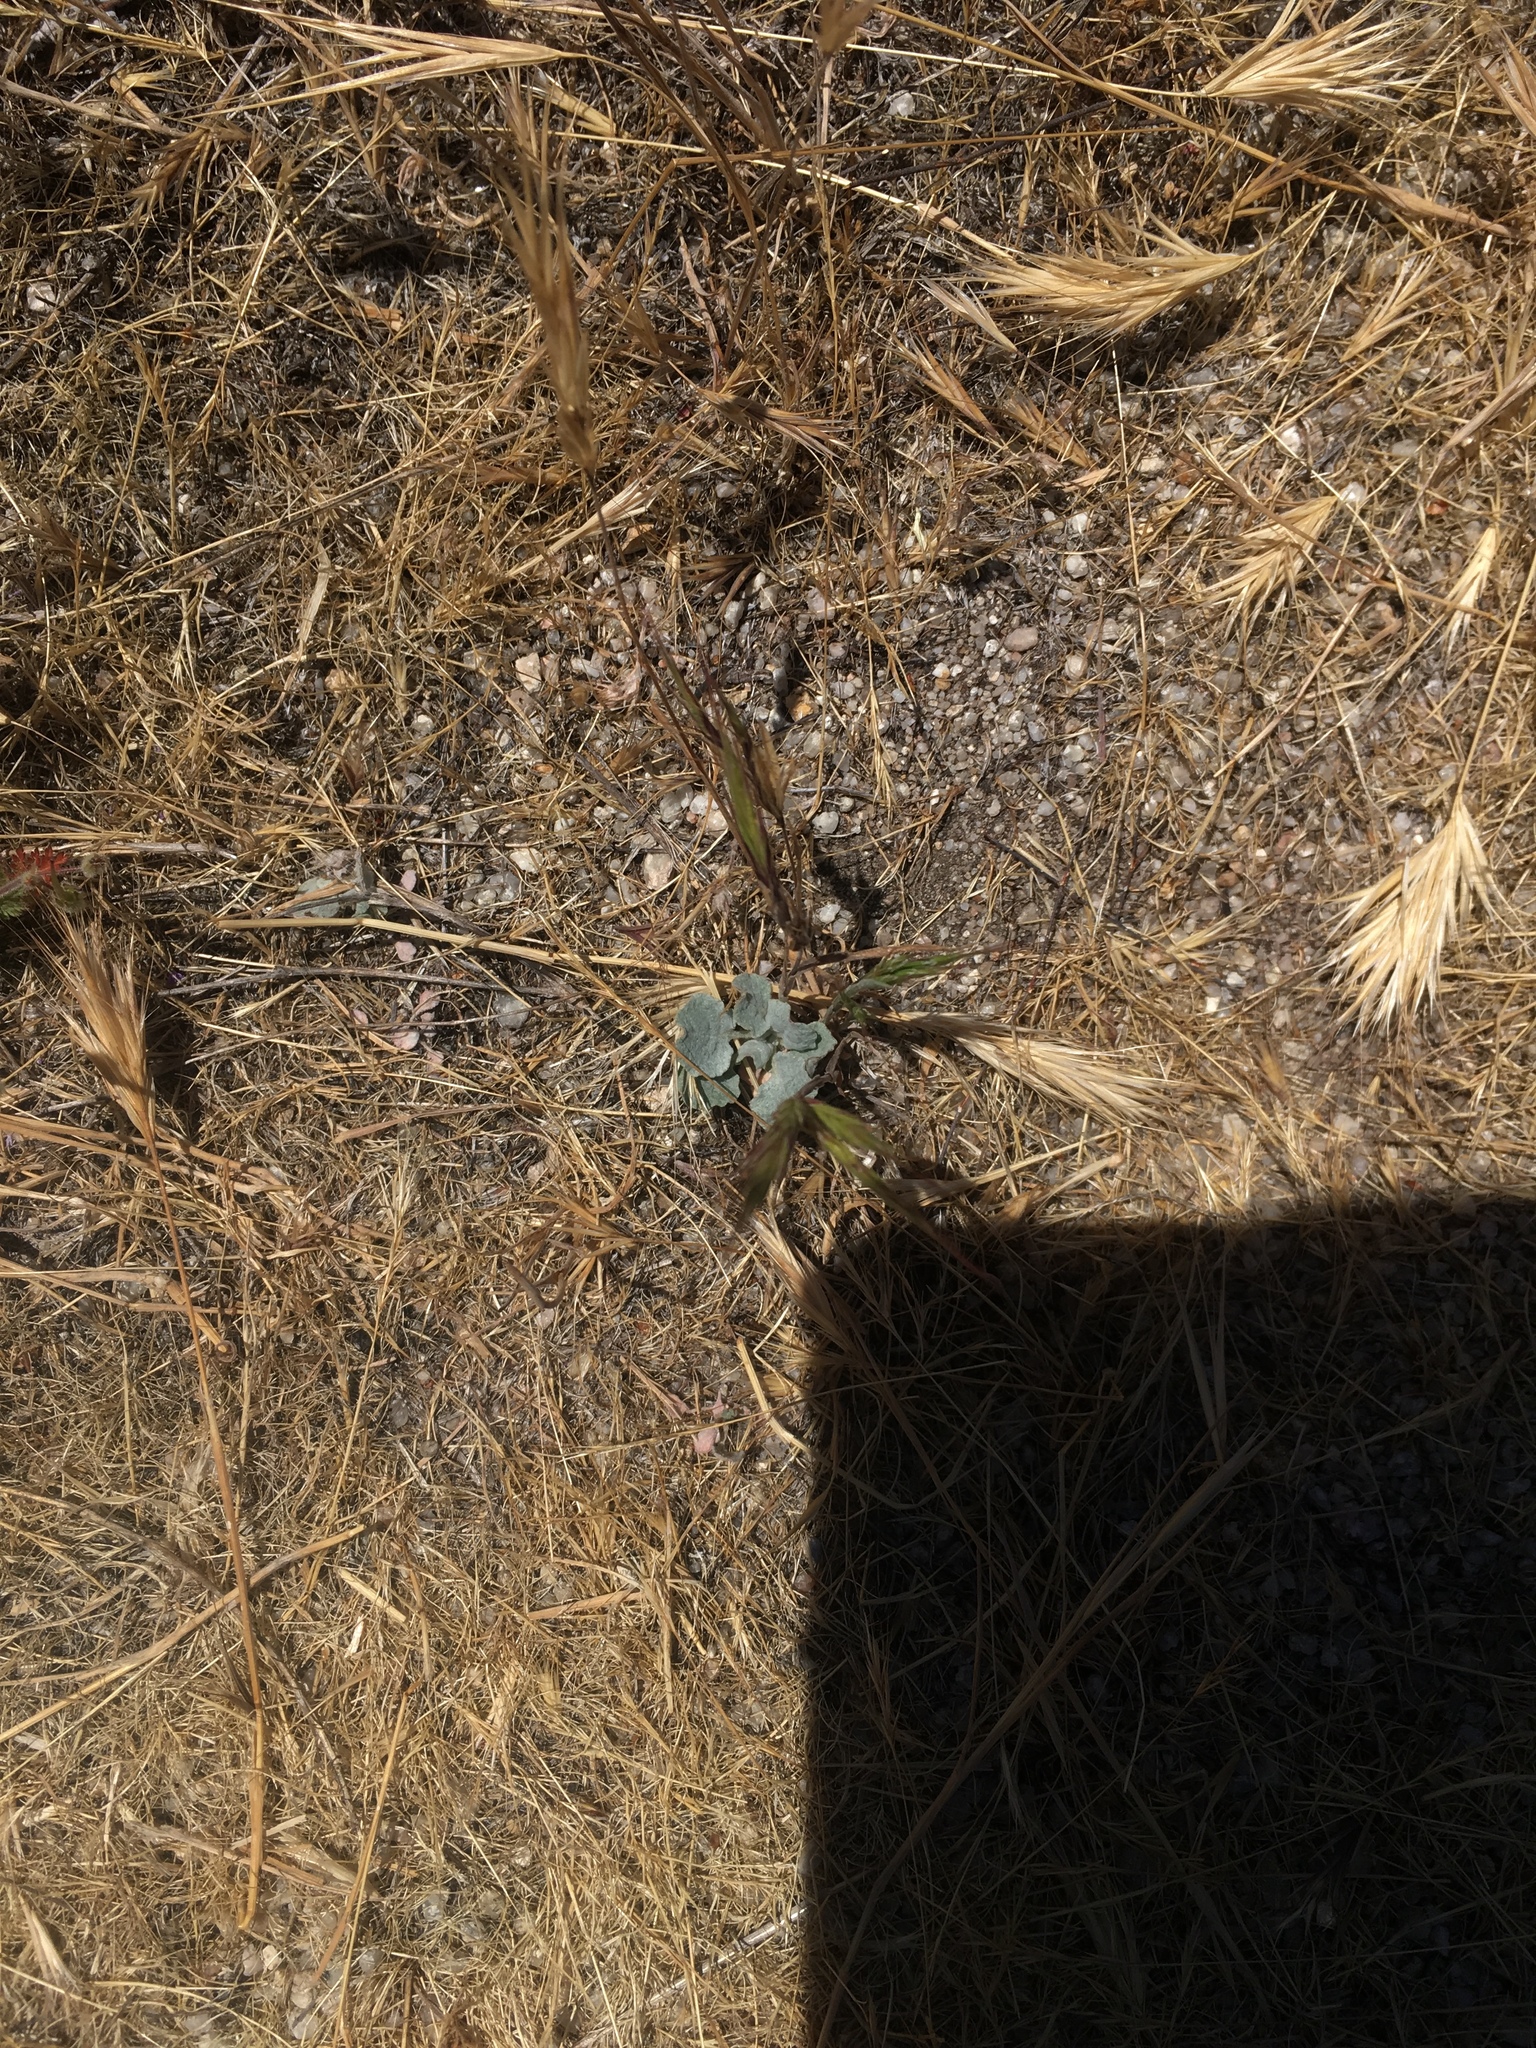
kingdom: Plantae
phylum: Tracheophyta
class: Magnoliopsida
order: Caryophyllales
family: Polygonaceae
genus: Eriogonum
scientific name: Eriogonum elegans
